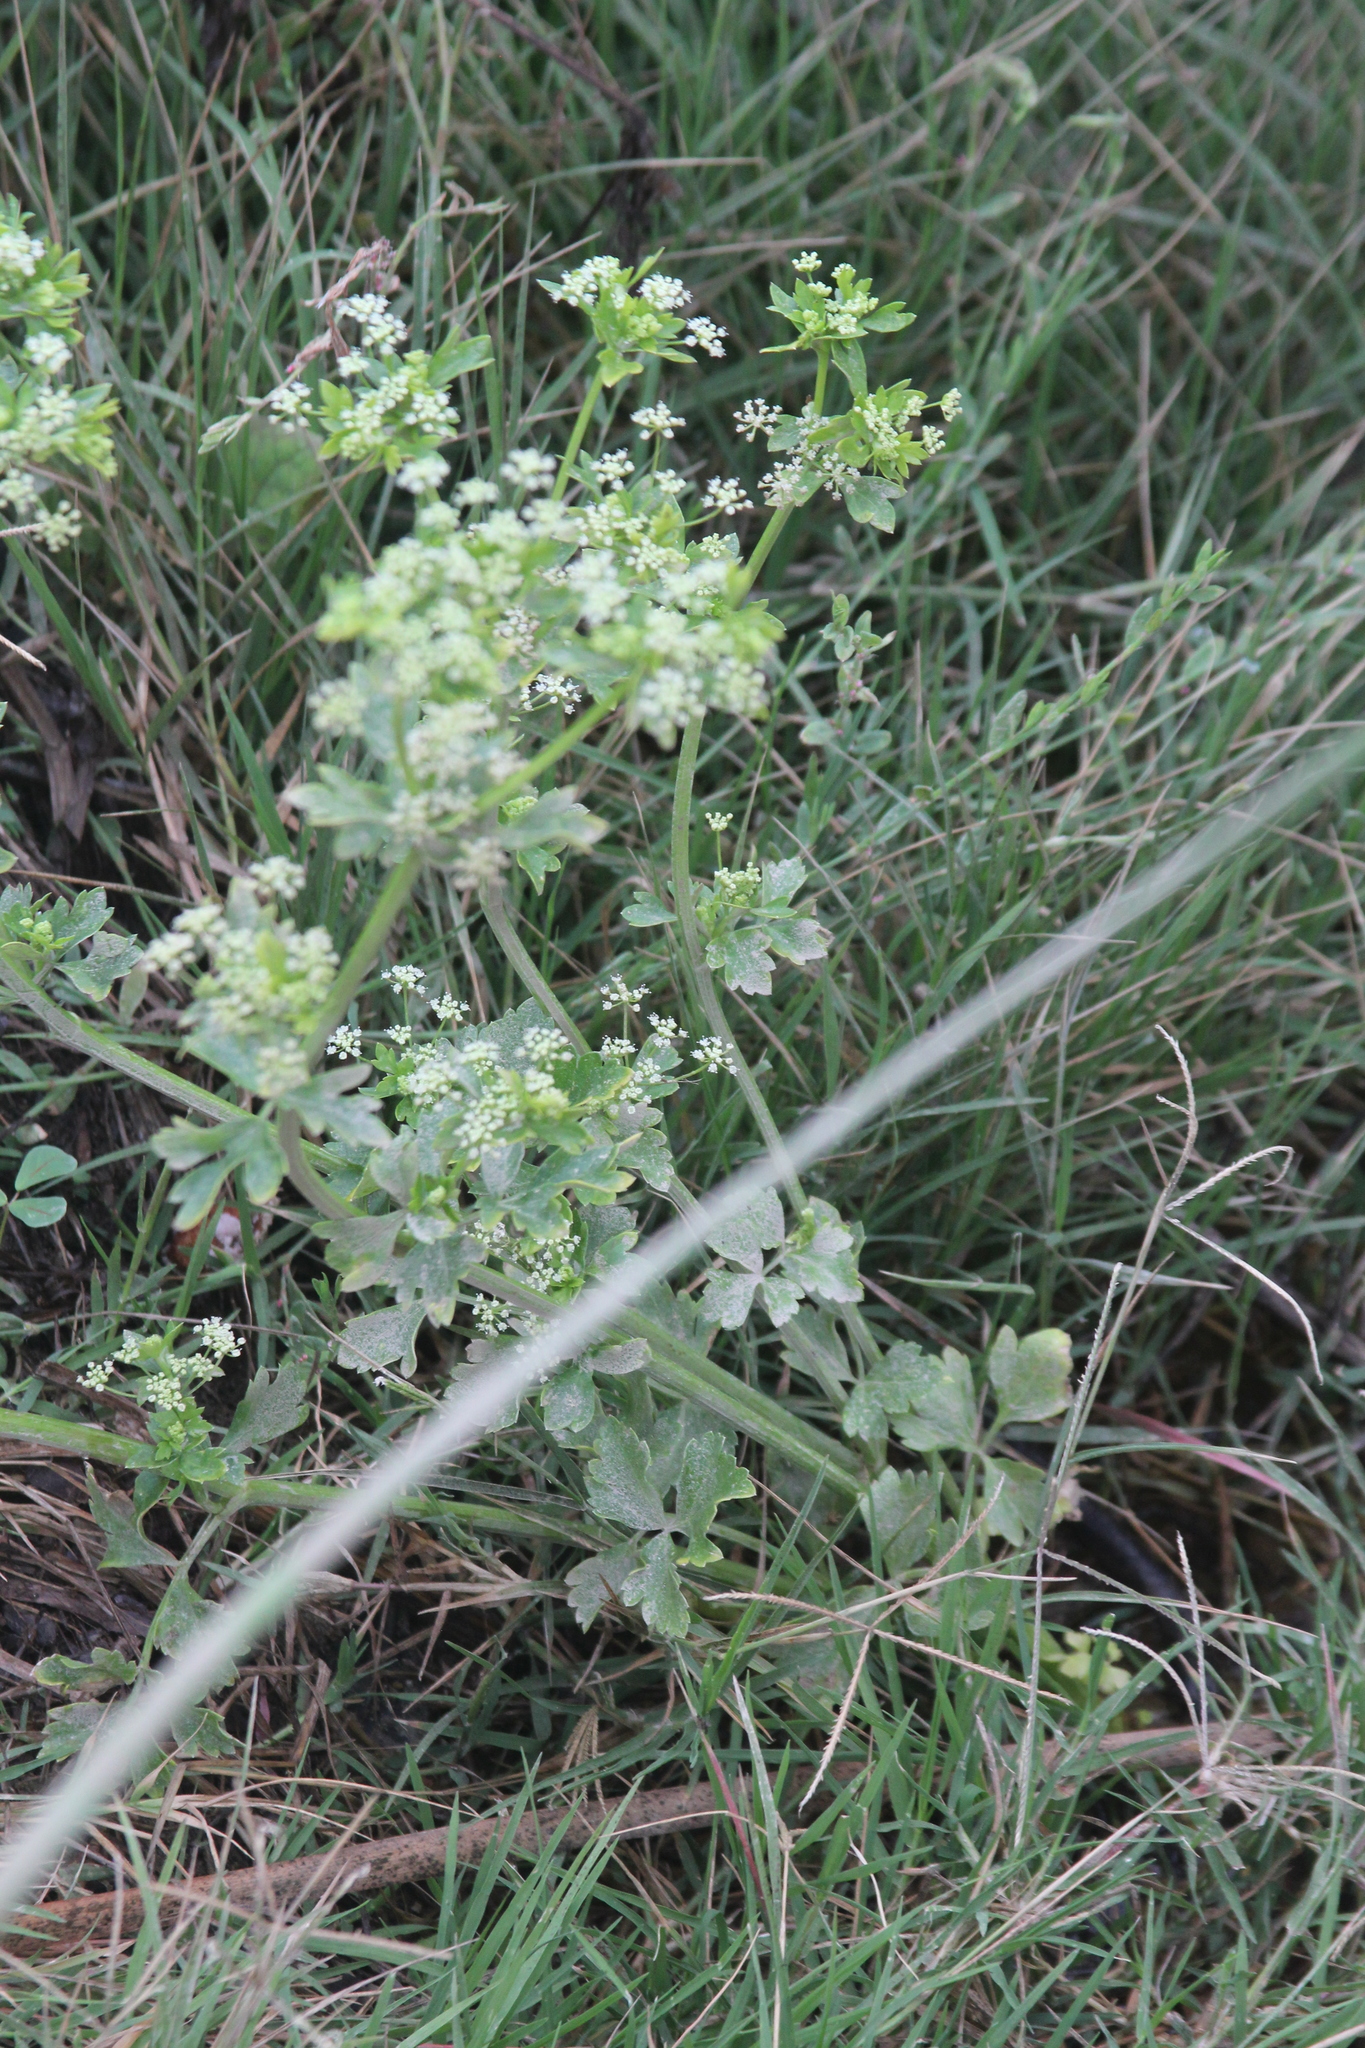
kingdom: Plantae
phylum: Tracheophyta
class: Magnoliopsida
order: Apiales
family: Apiaceae
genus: Apium
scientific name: Apium graveolens
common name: Wild celery
